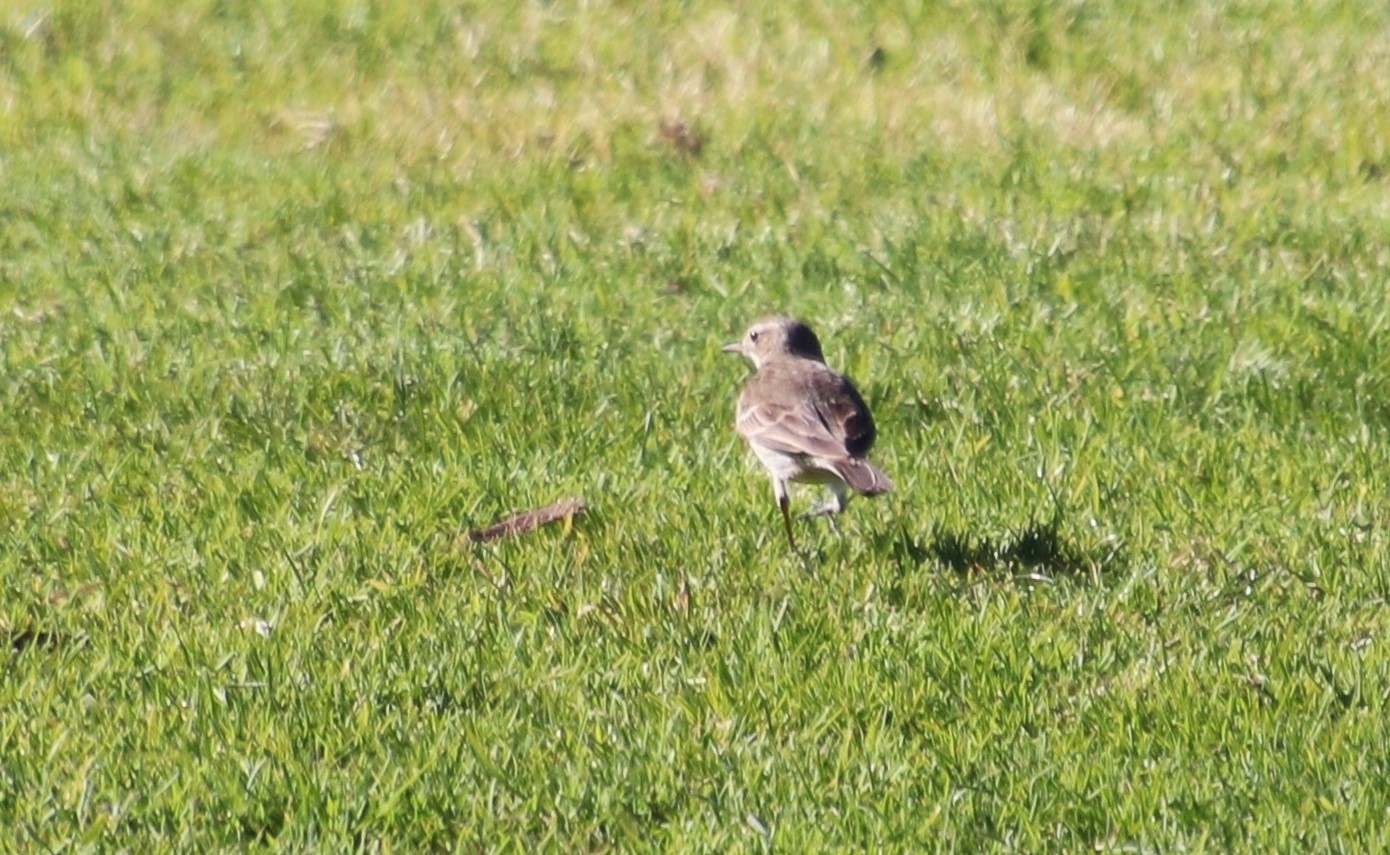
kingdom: Animalia
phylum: Chordata
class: Aves
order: Passeriformes
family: Motacillidae
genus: Anthus
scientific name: Anthus rubescens
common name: Buff-bellied pipit
